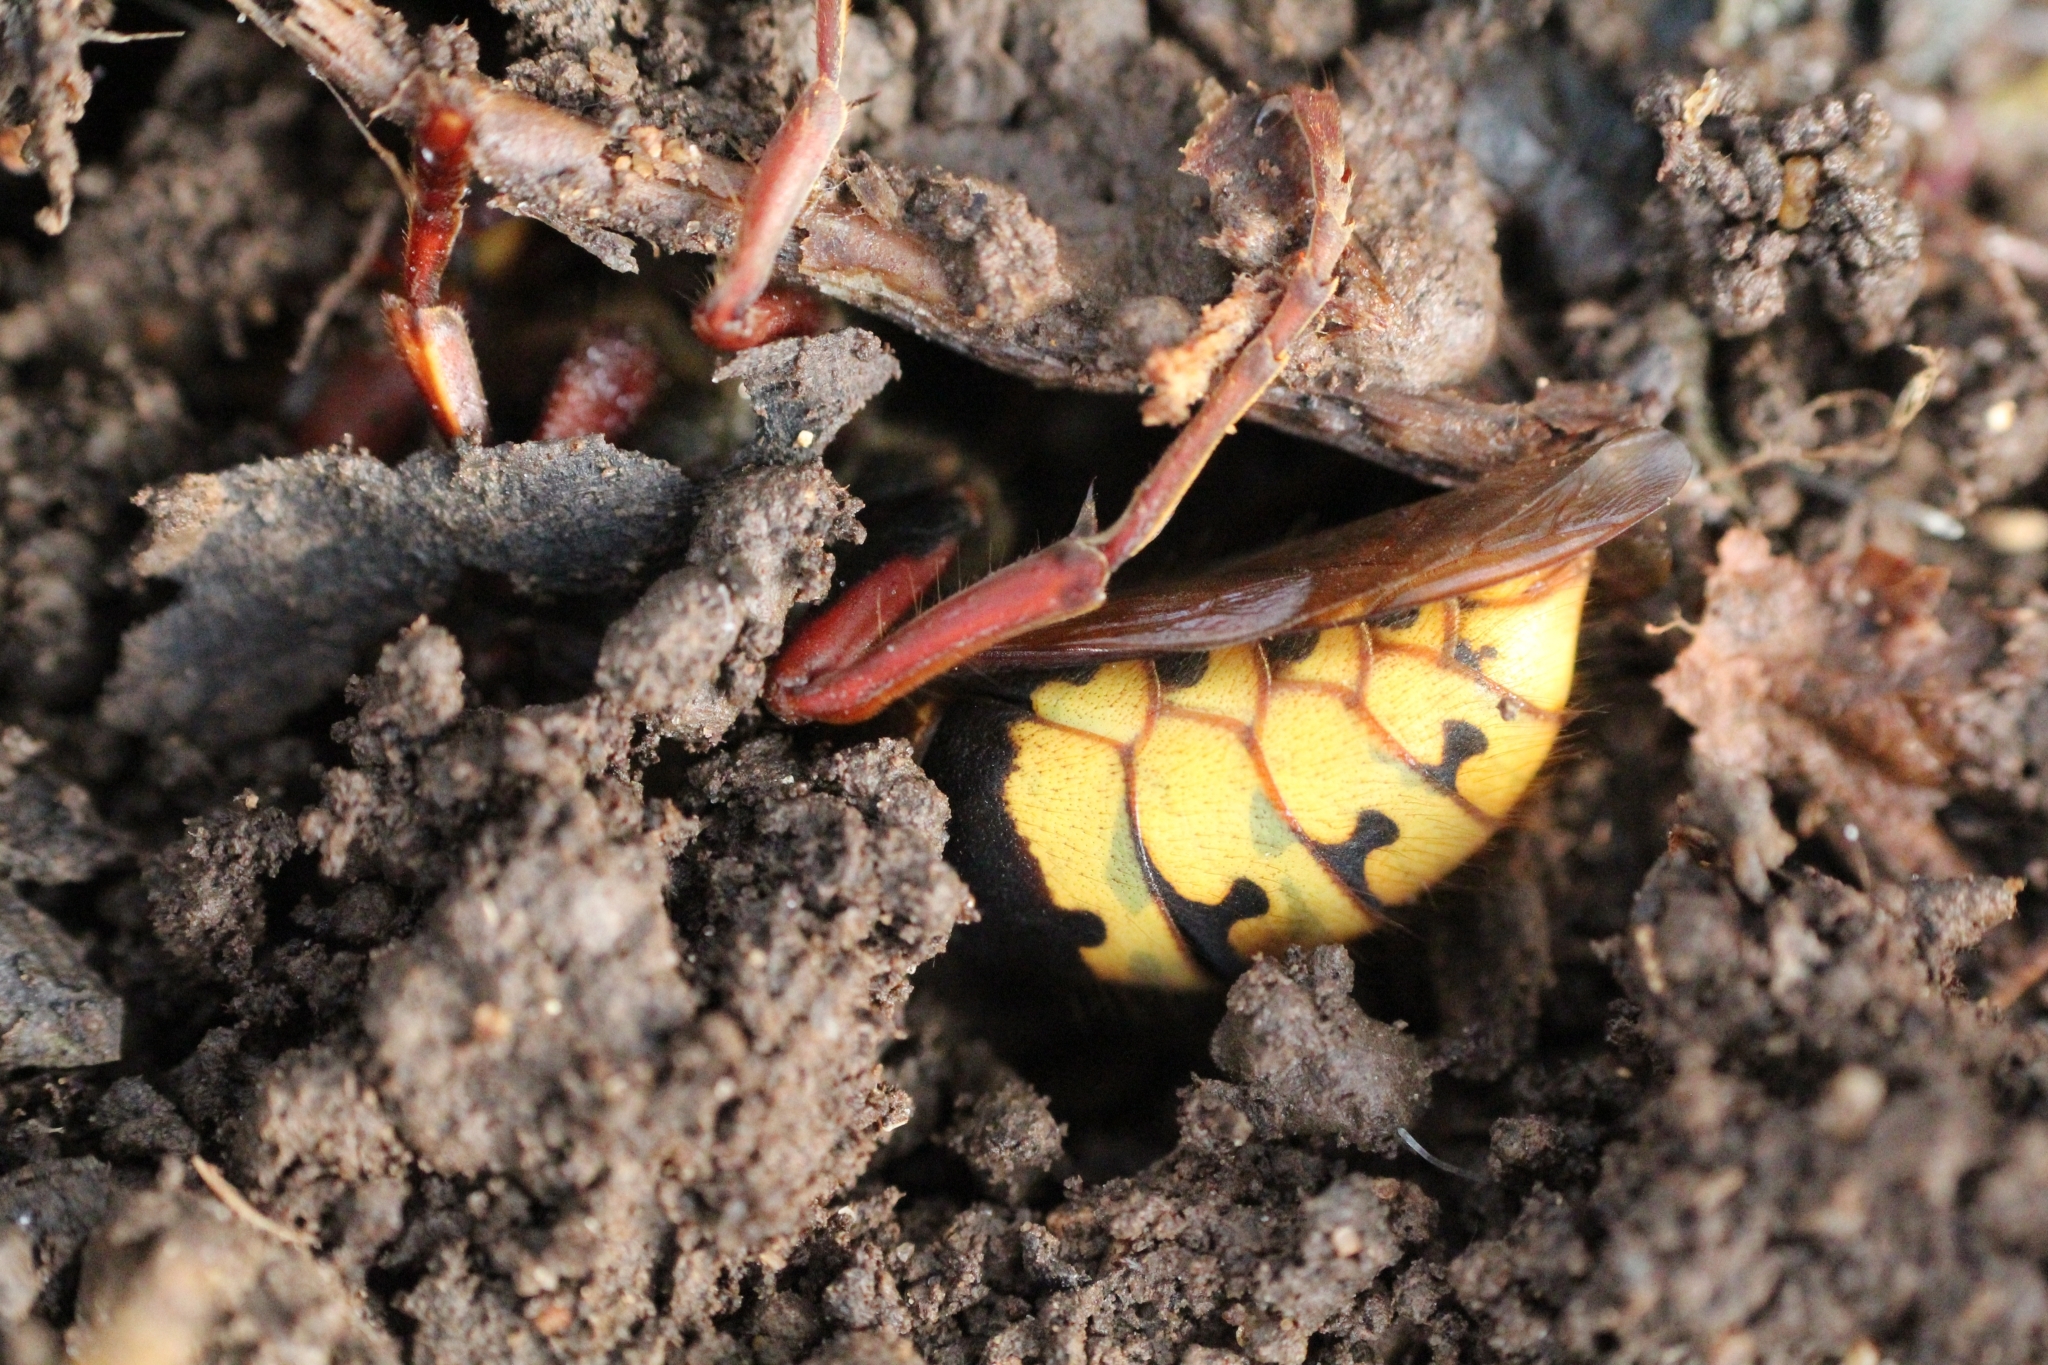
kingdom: Animalia
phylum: Arthropoda
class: Insecta
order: Hymenoptera
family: Vespidae
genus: Vespa
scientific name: Vespa crabro
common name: Hornet
